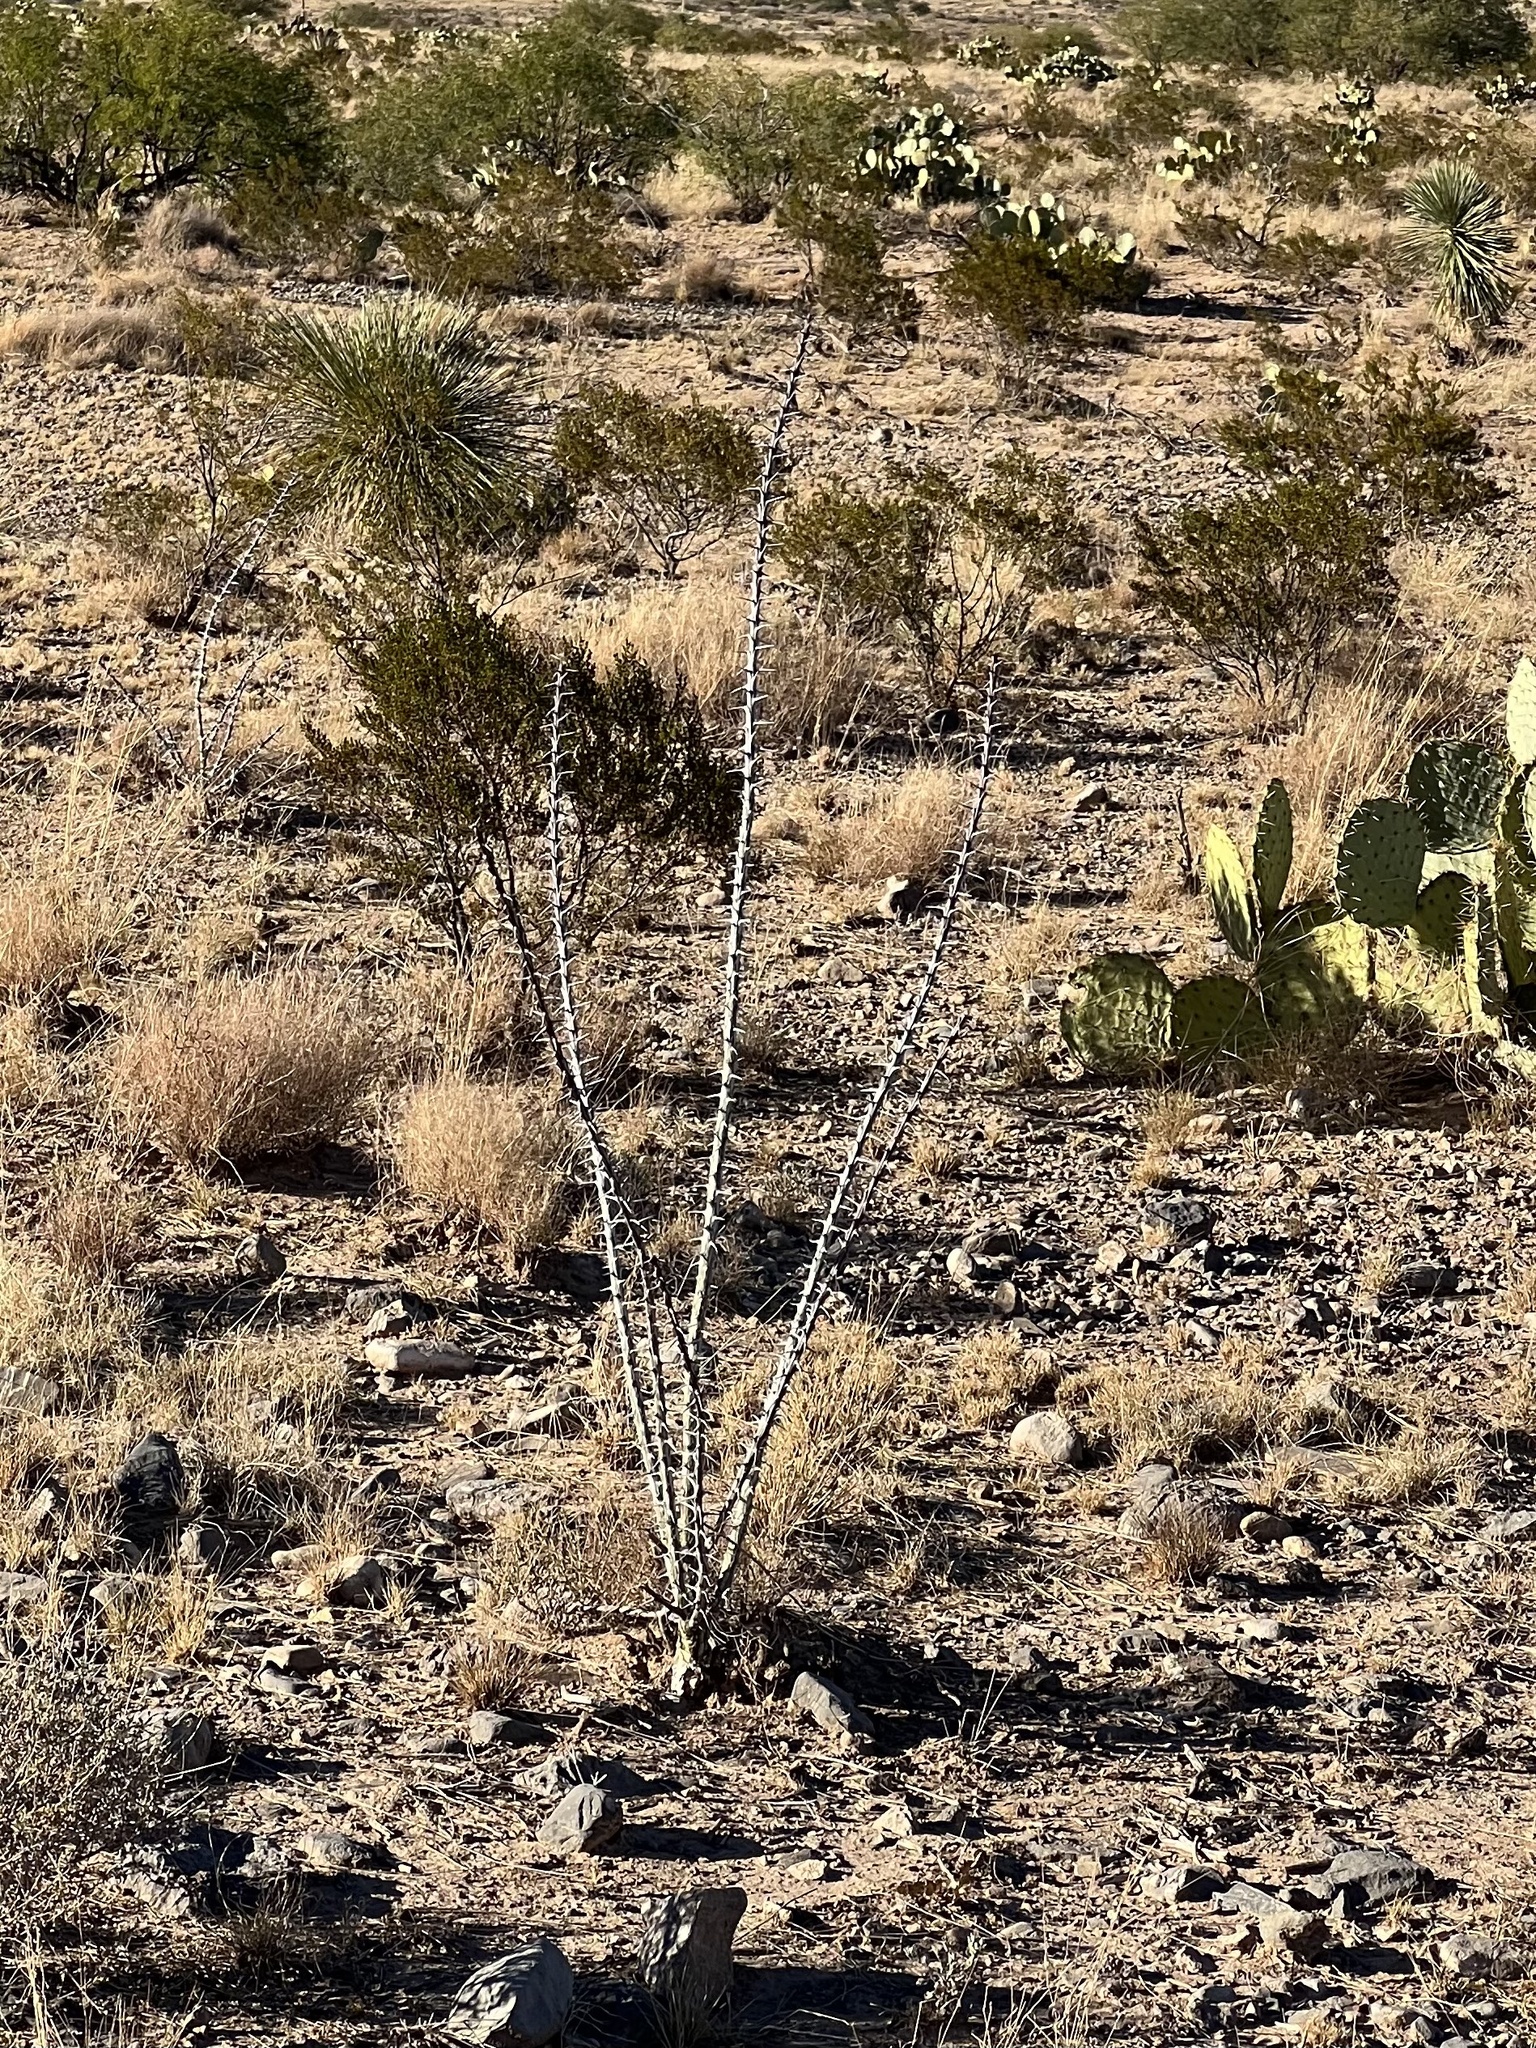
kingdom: Plantae
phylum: Tracheophyta
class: Magnoliopsida
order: Ericales
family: Fouquieriaceae
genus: Fouquieria
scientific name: Fouquieria splendens
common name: Vine-cactus
